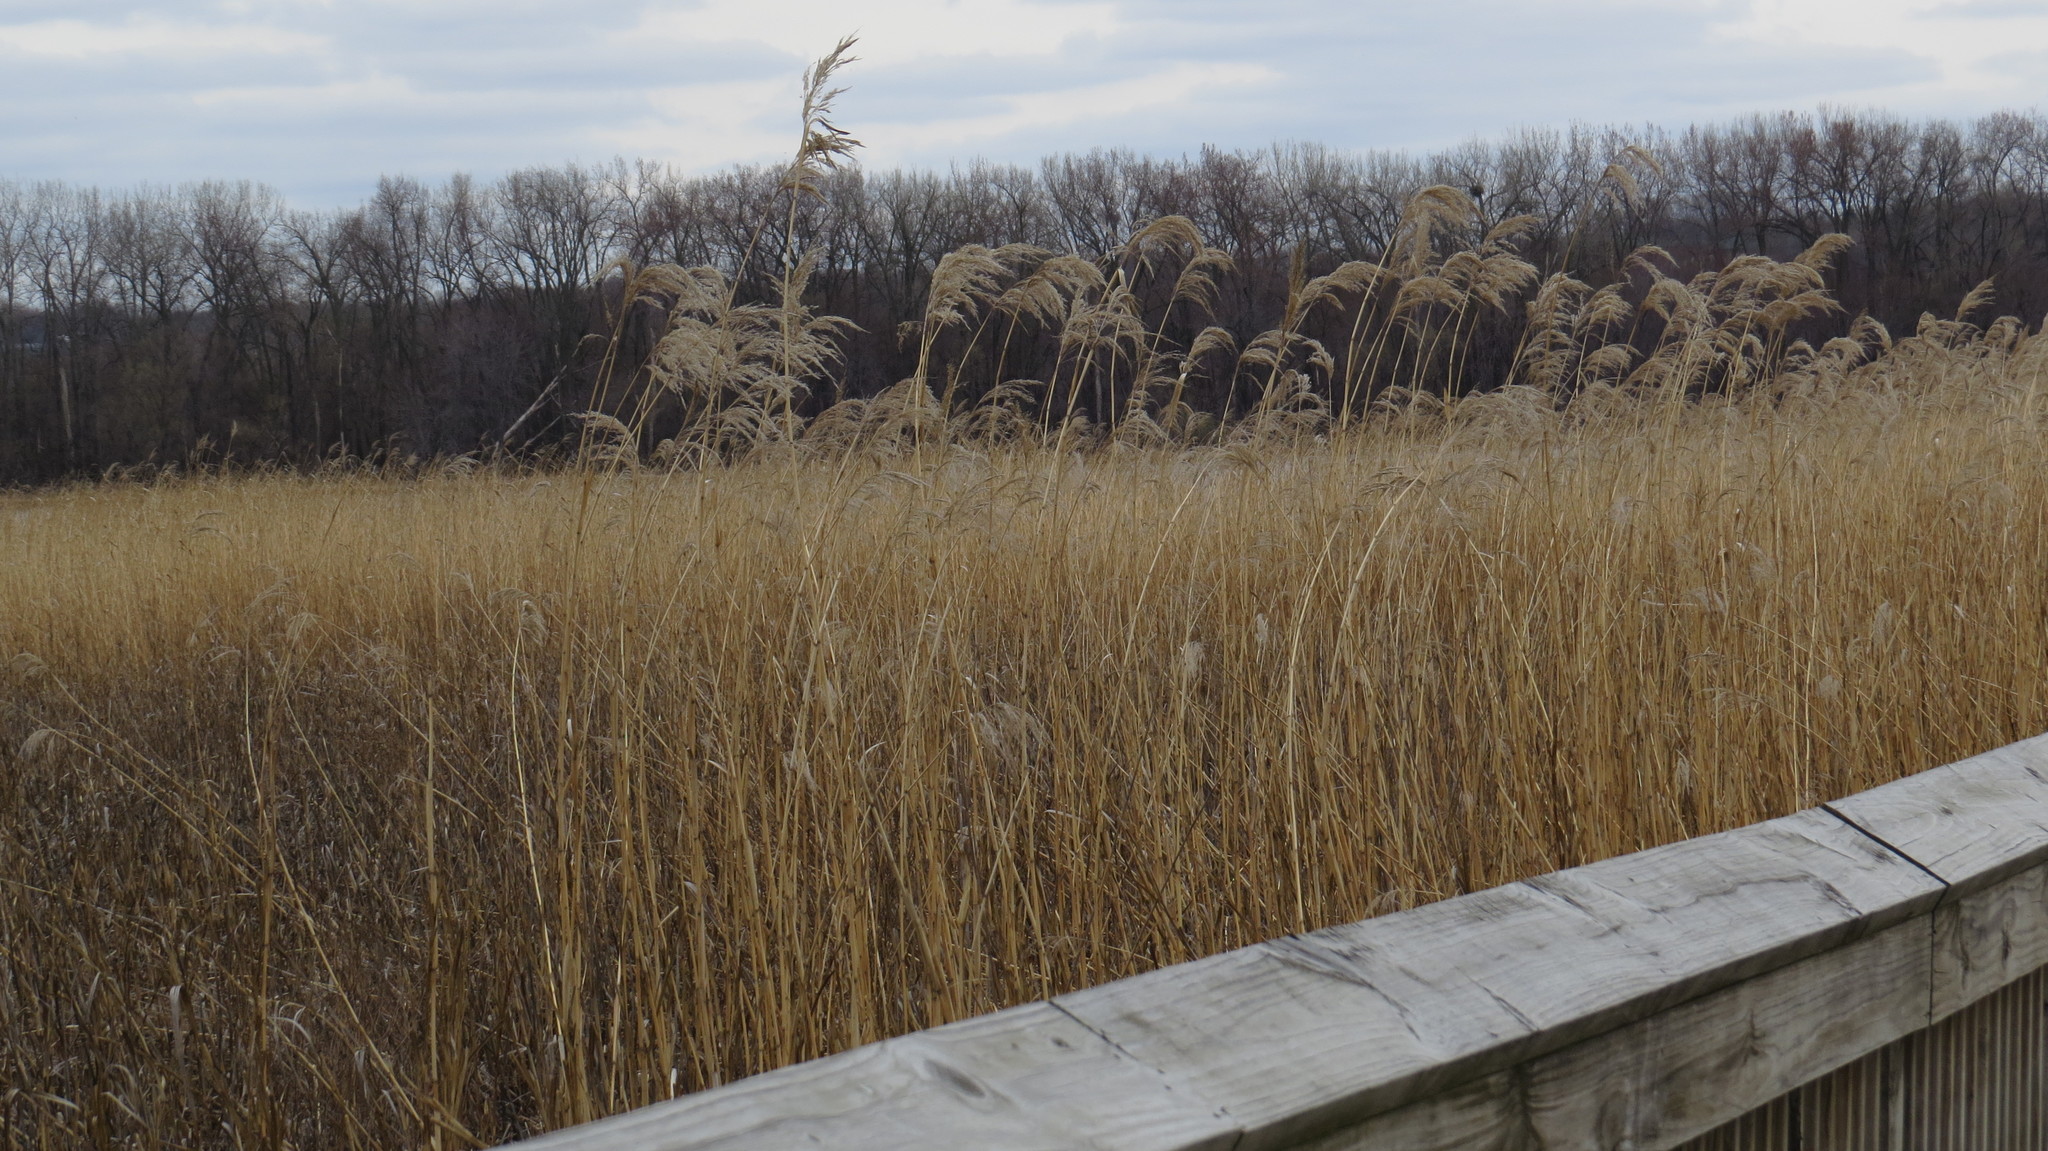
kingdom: Plantae
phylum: Tracheophyta
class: Liliopsida
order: Poales
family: Poaceae
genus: Phragmites
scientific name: Phragmites australis
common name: Common reed
